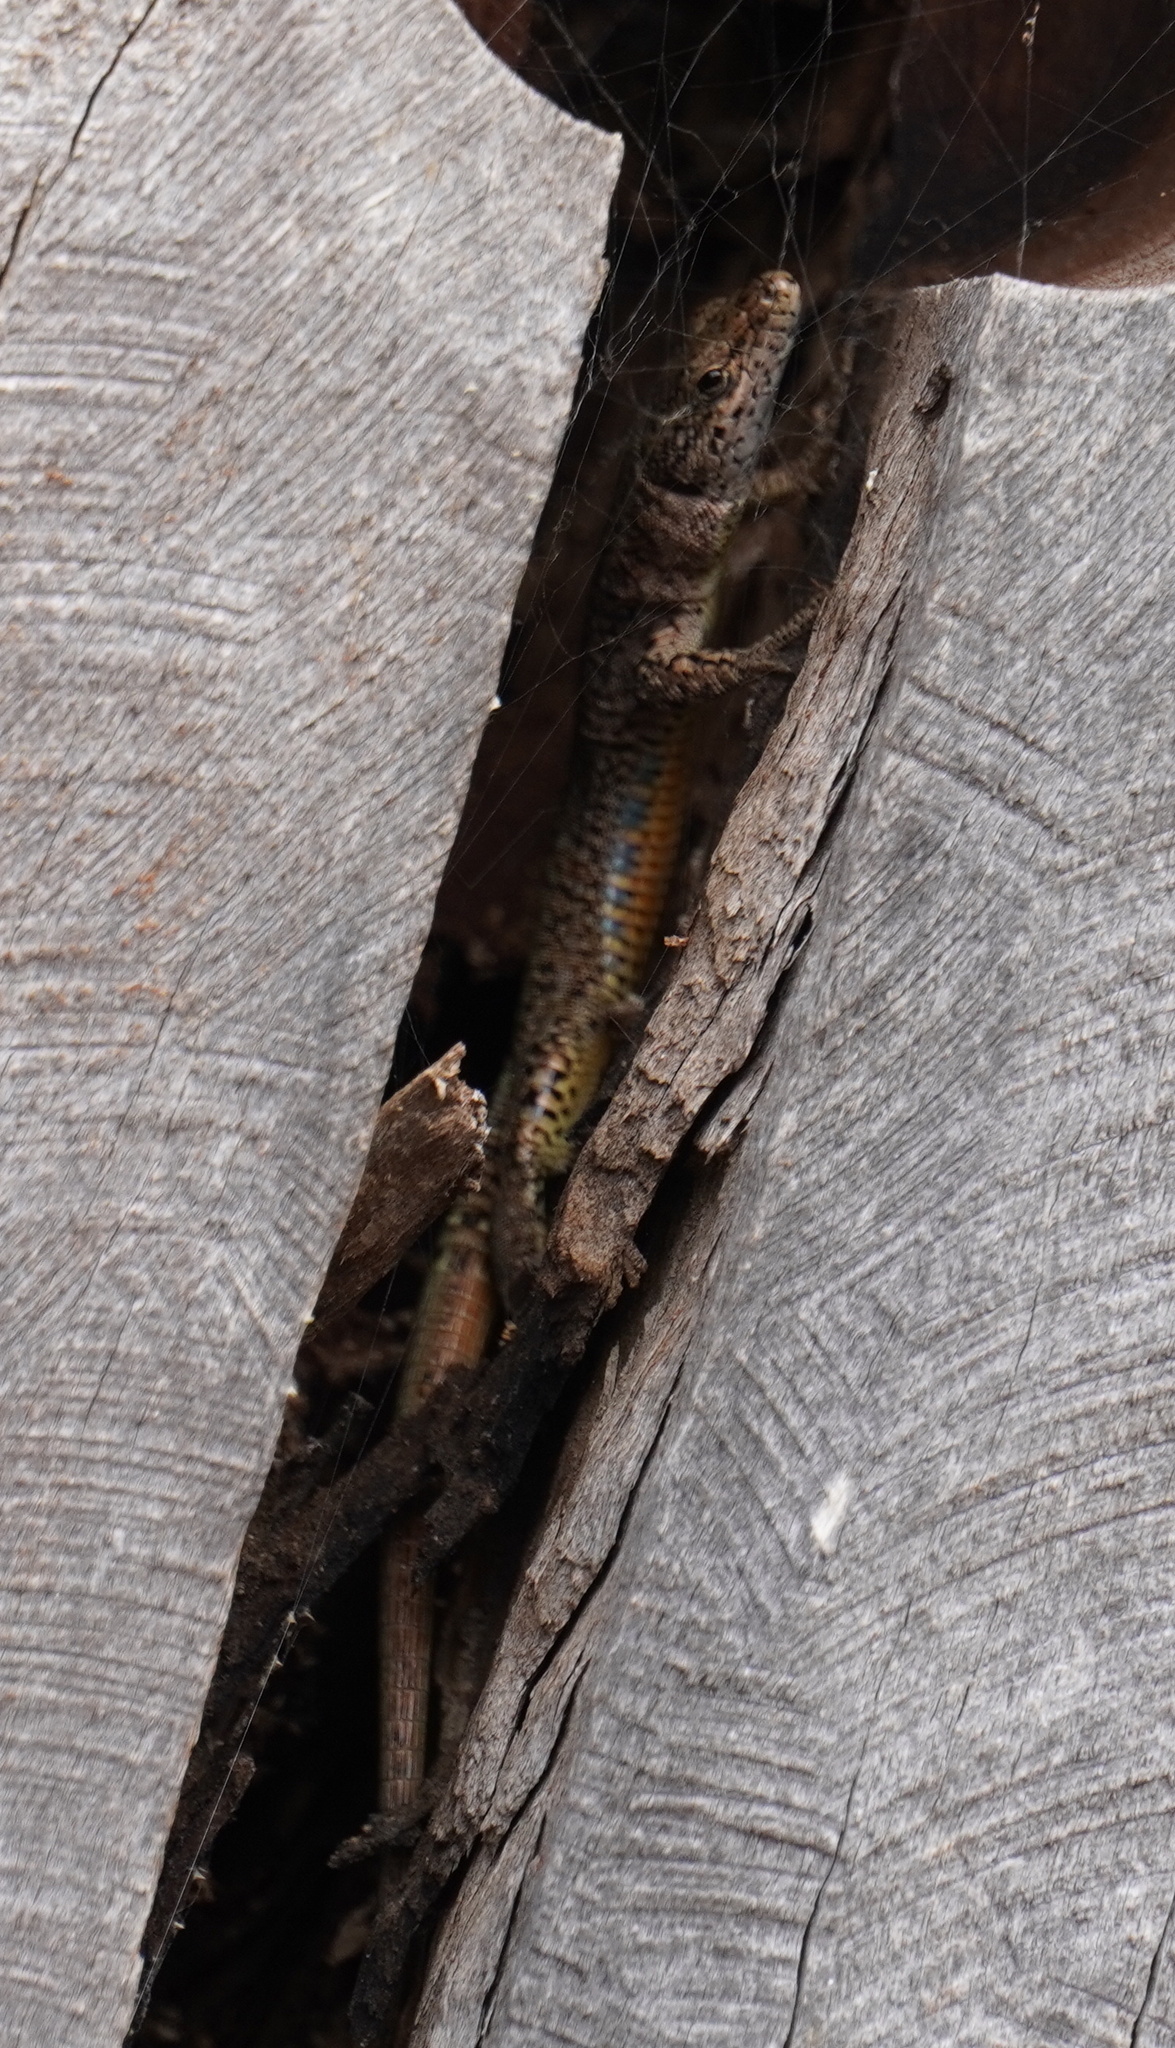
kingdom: Animalia
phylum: Chordata
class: Squamata
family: Lacertidae
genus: Podarcis
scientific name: Podarcis virescens
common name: Geniez’s wall lizard
